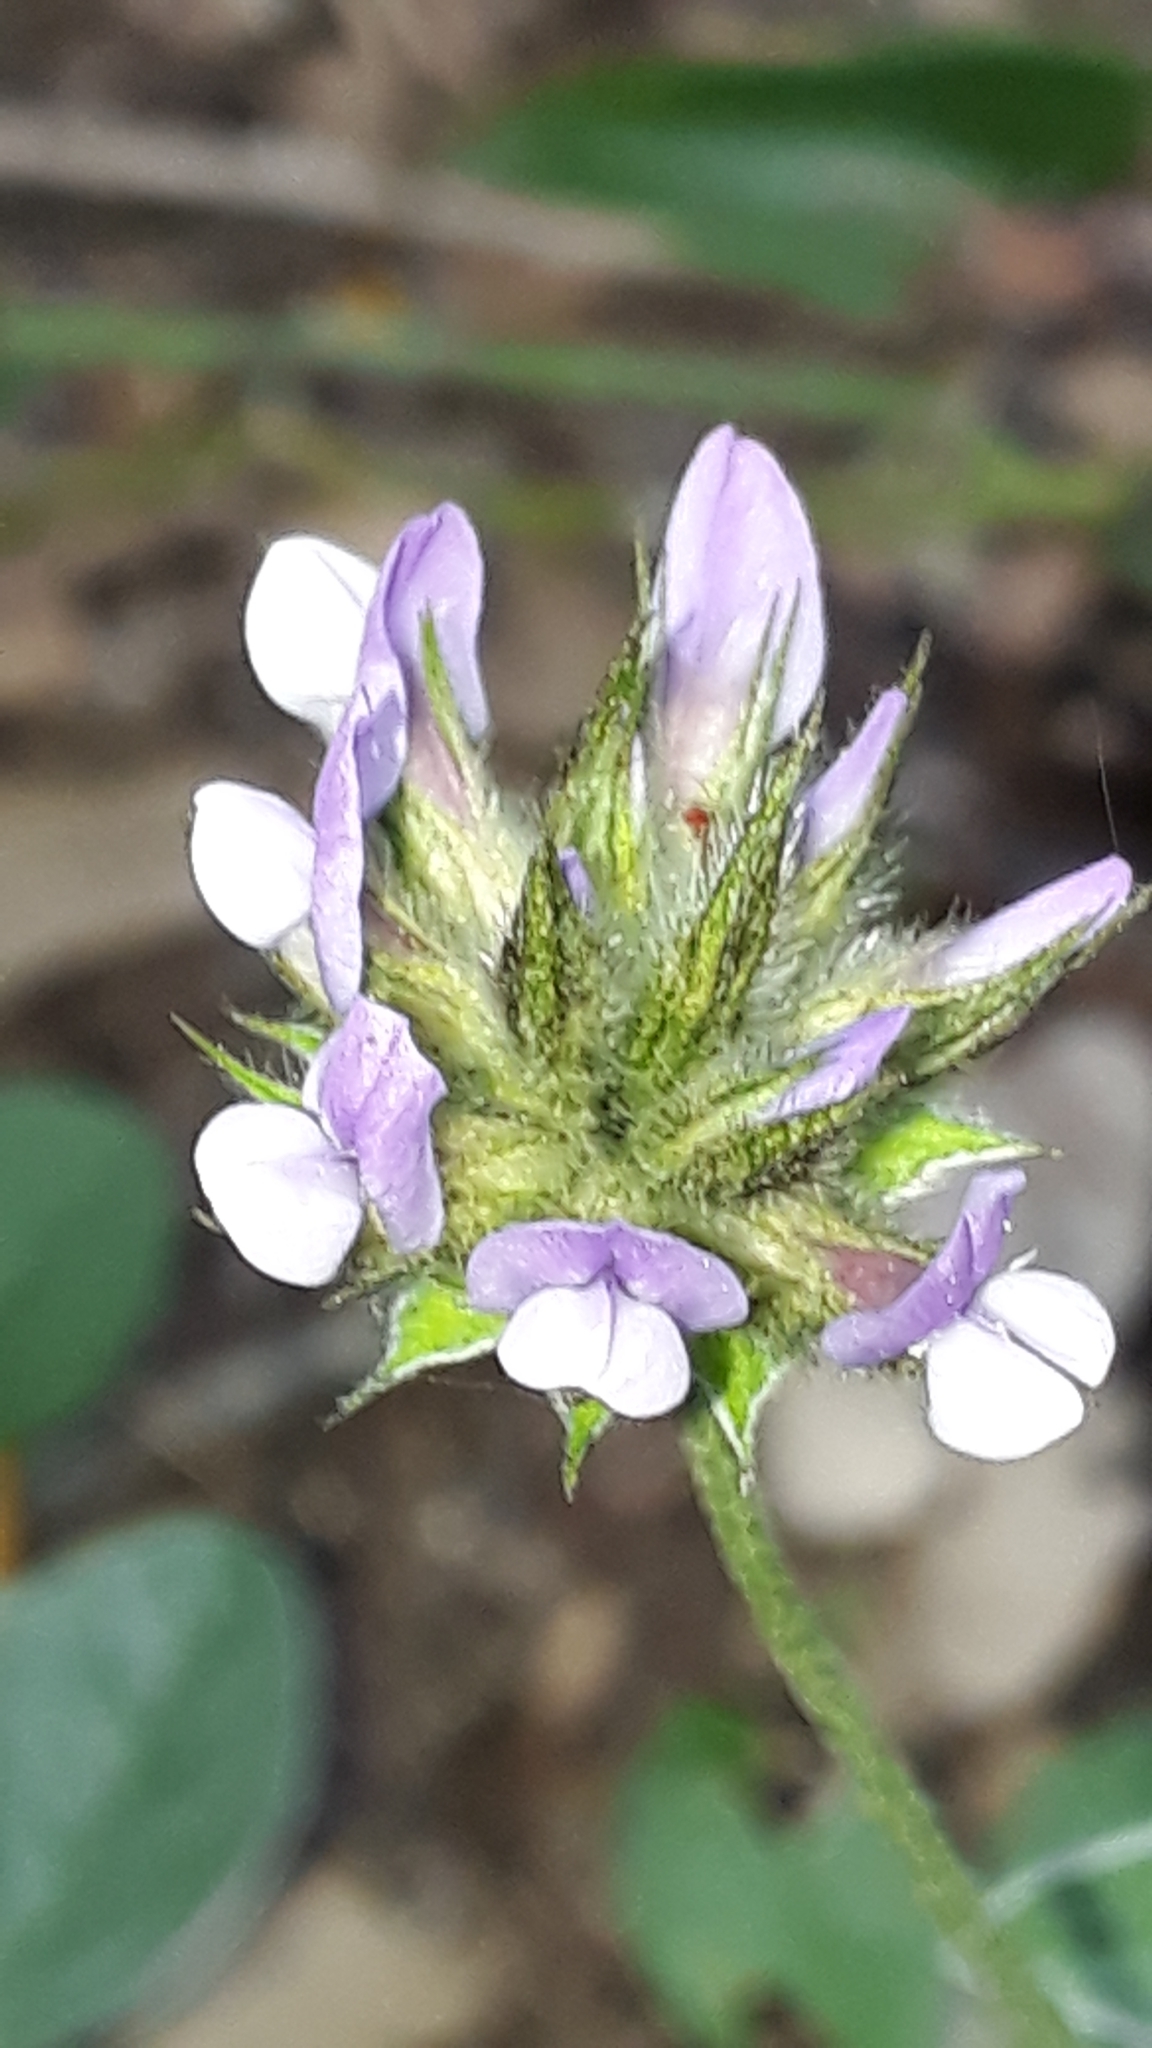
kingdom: Plantae
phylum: Tracheophyta
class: Magnoliopsida
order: Fabales
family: Fabaceae
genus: Bituminaria
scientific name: Bituminaria bituminosa
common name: Arabian pea
